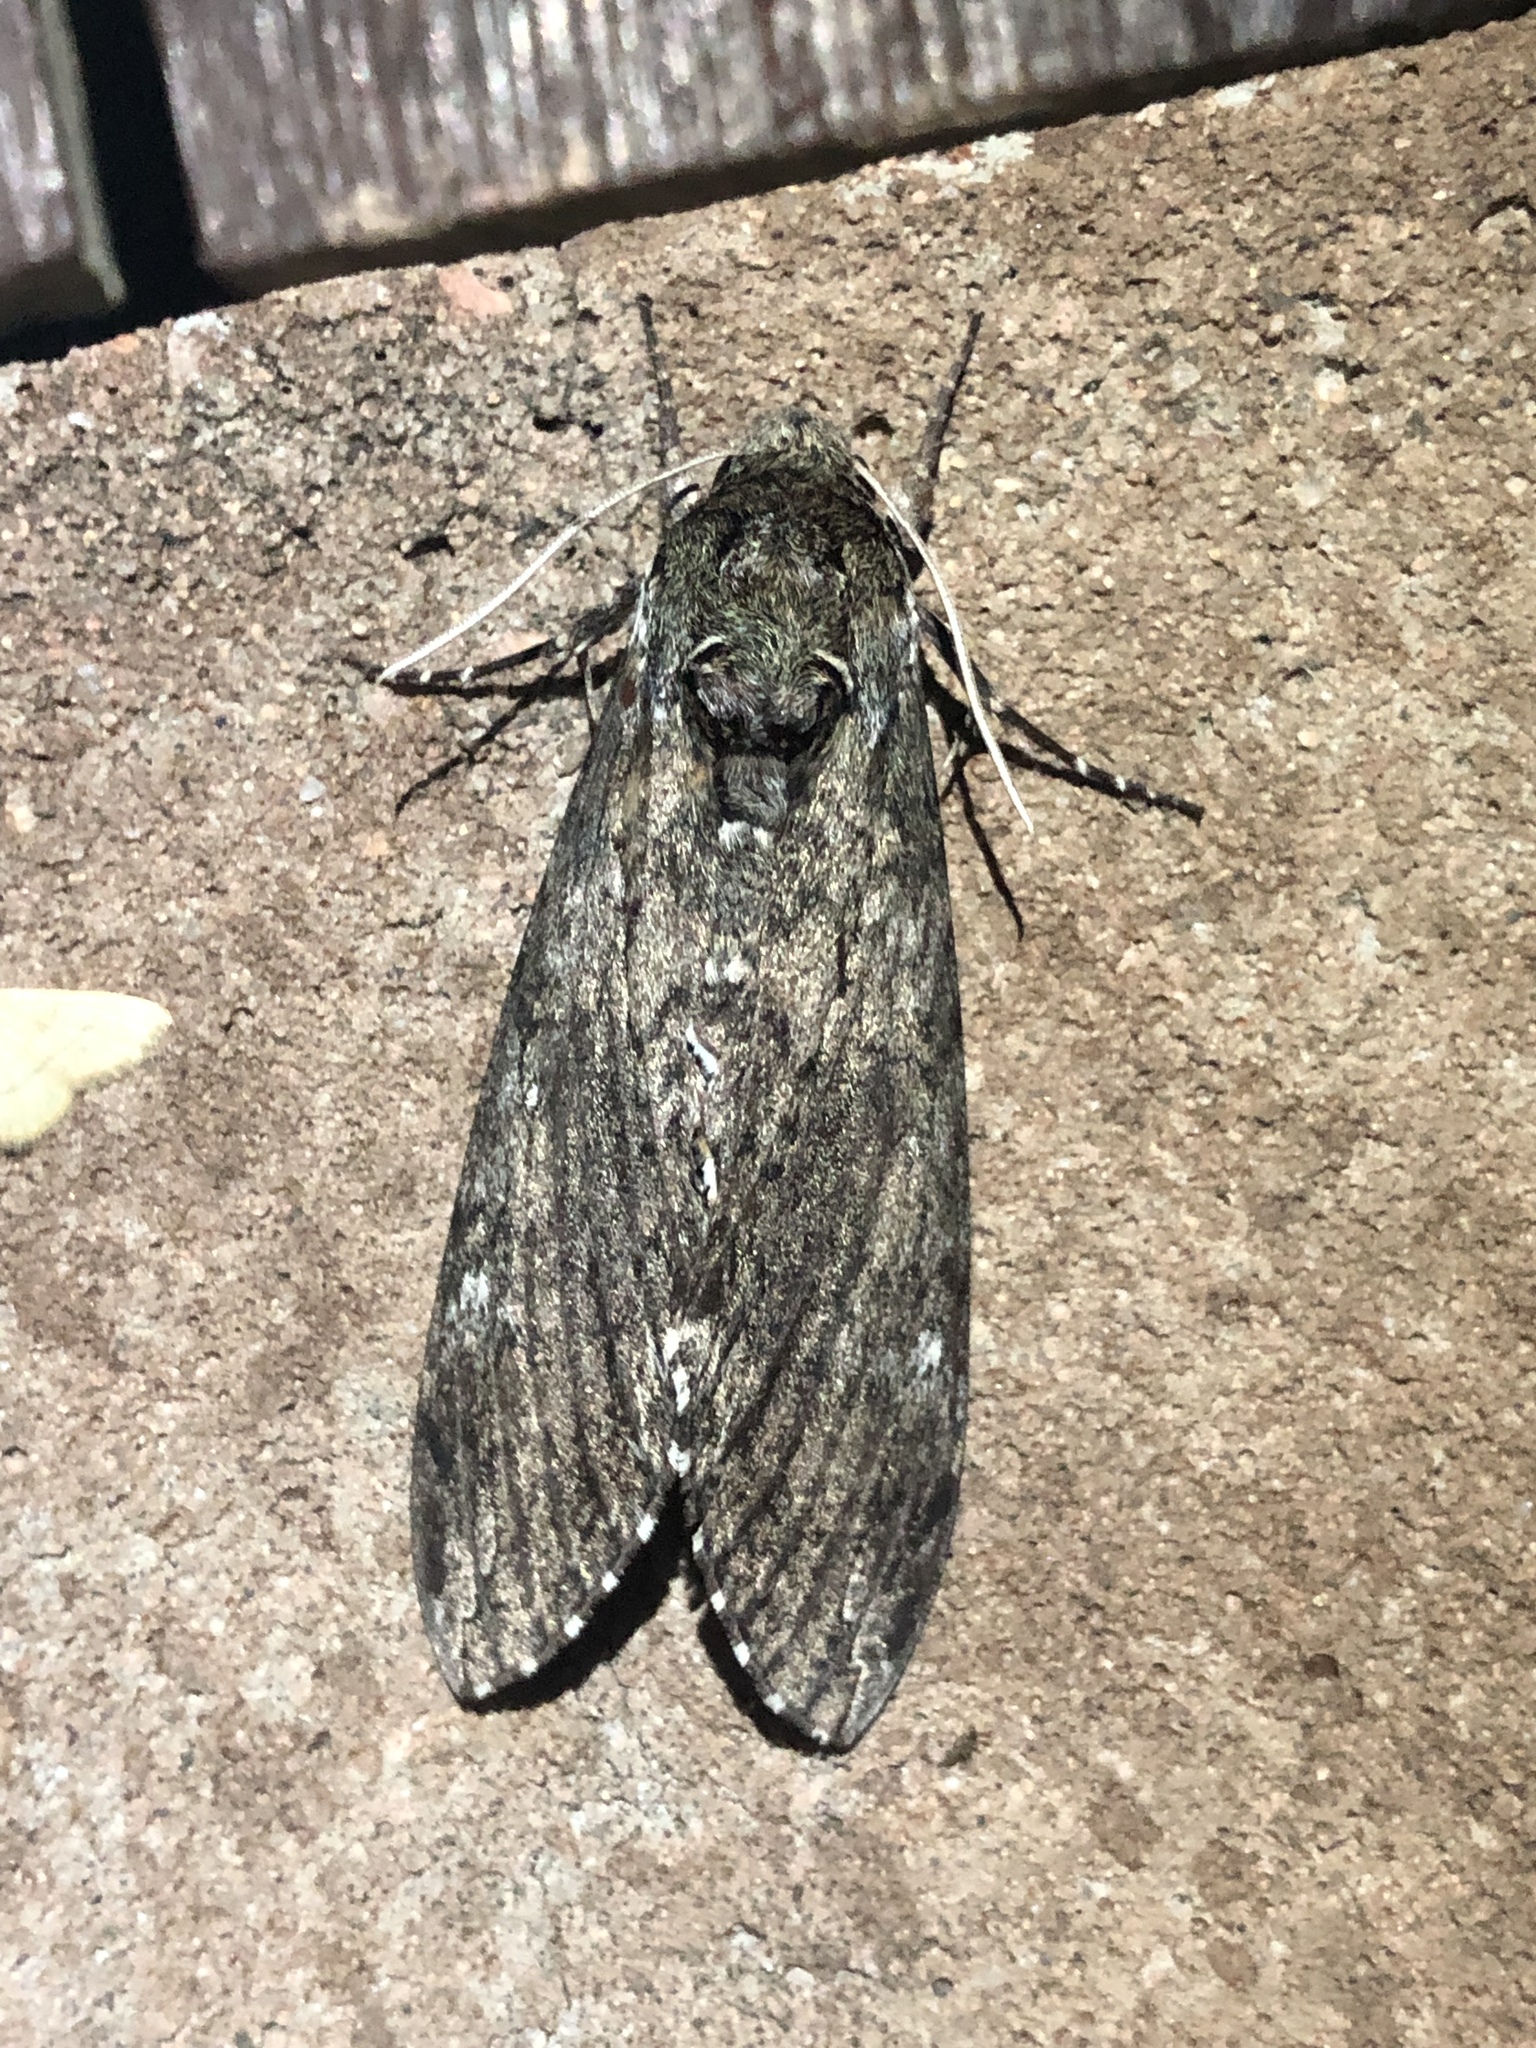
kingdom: Animalia
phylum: Arthropoda
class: Insecta
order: Lepidoptera
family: Sphingidae
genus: Manduca
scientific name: Manduca sexta
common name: Carolina sphinx
